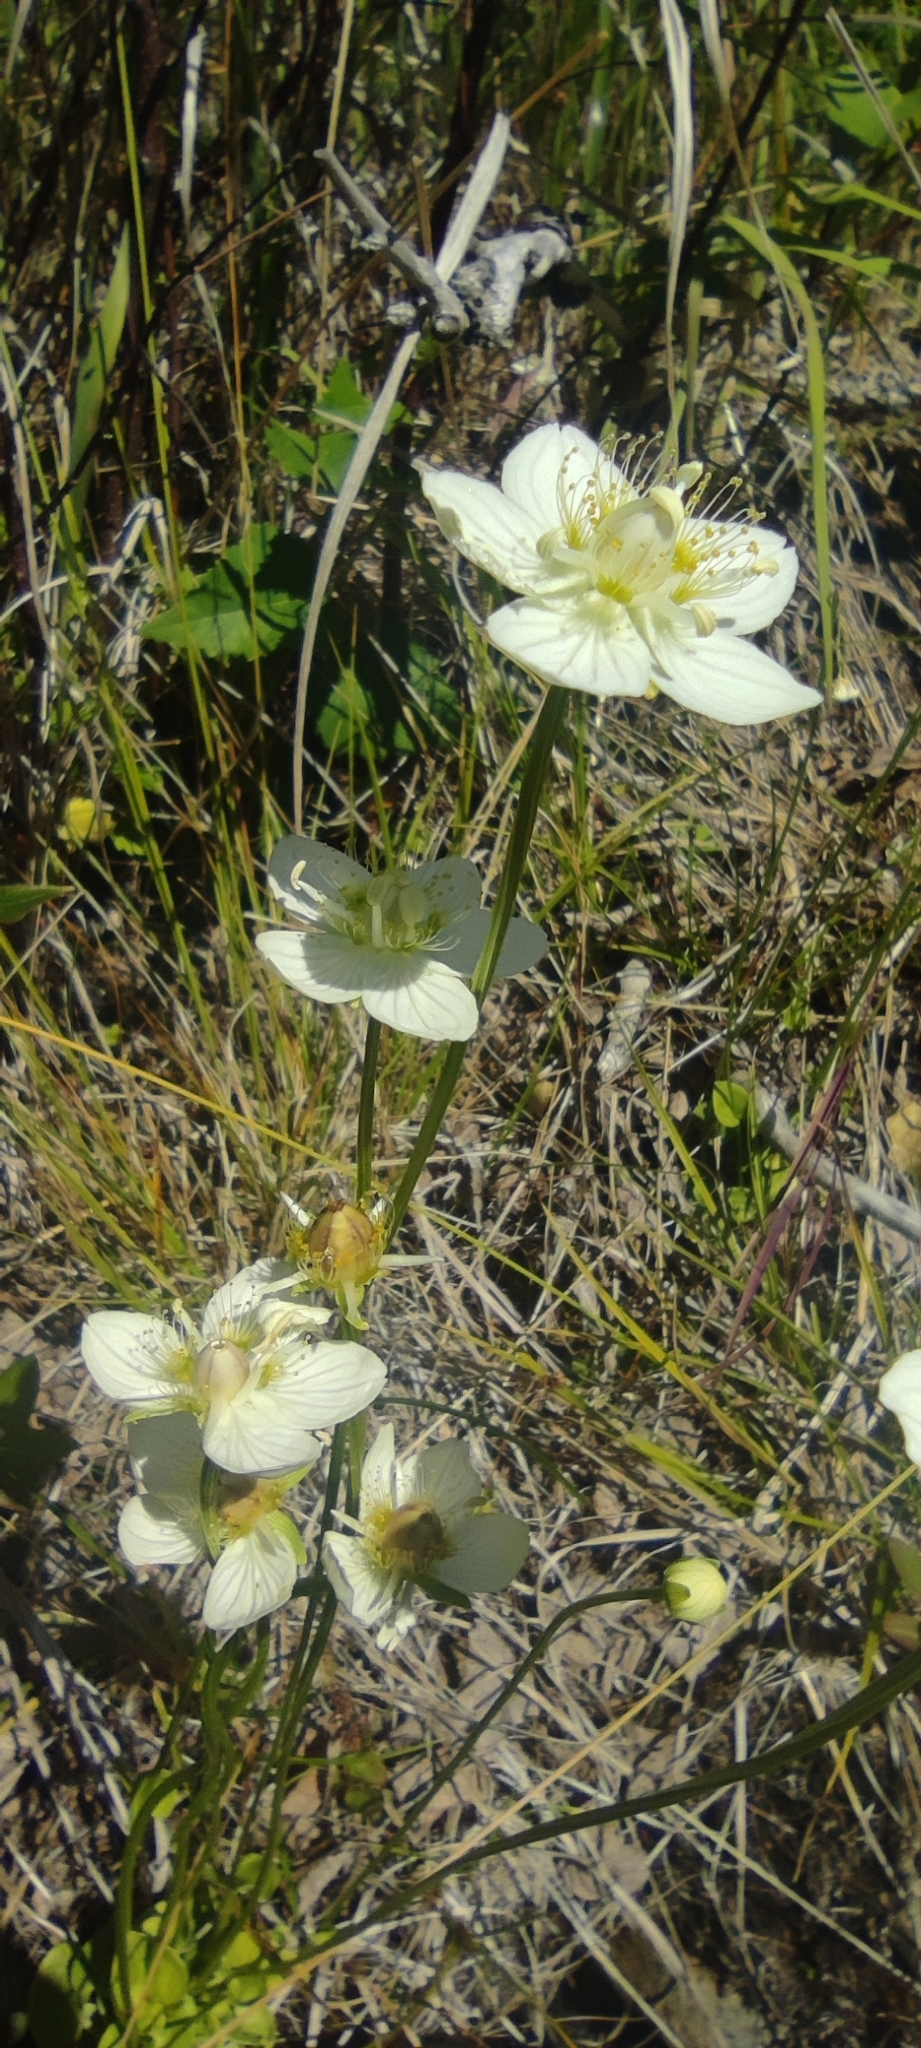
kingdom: Plantae
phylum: Tracheophyta
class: Magnoliopsida
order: Celastrales
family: Parnassiaceae
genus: Parnassia
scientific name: Parnassia palustris
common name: Grass-of-parnassus
